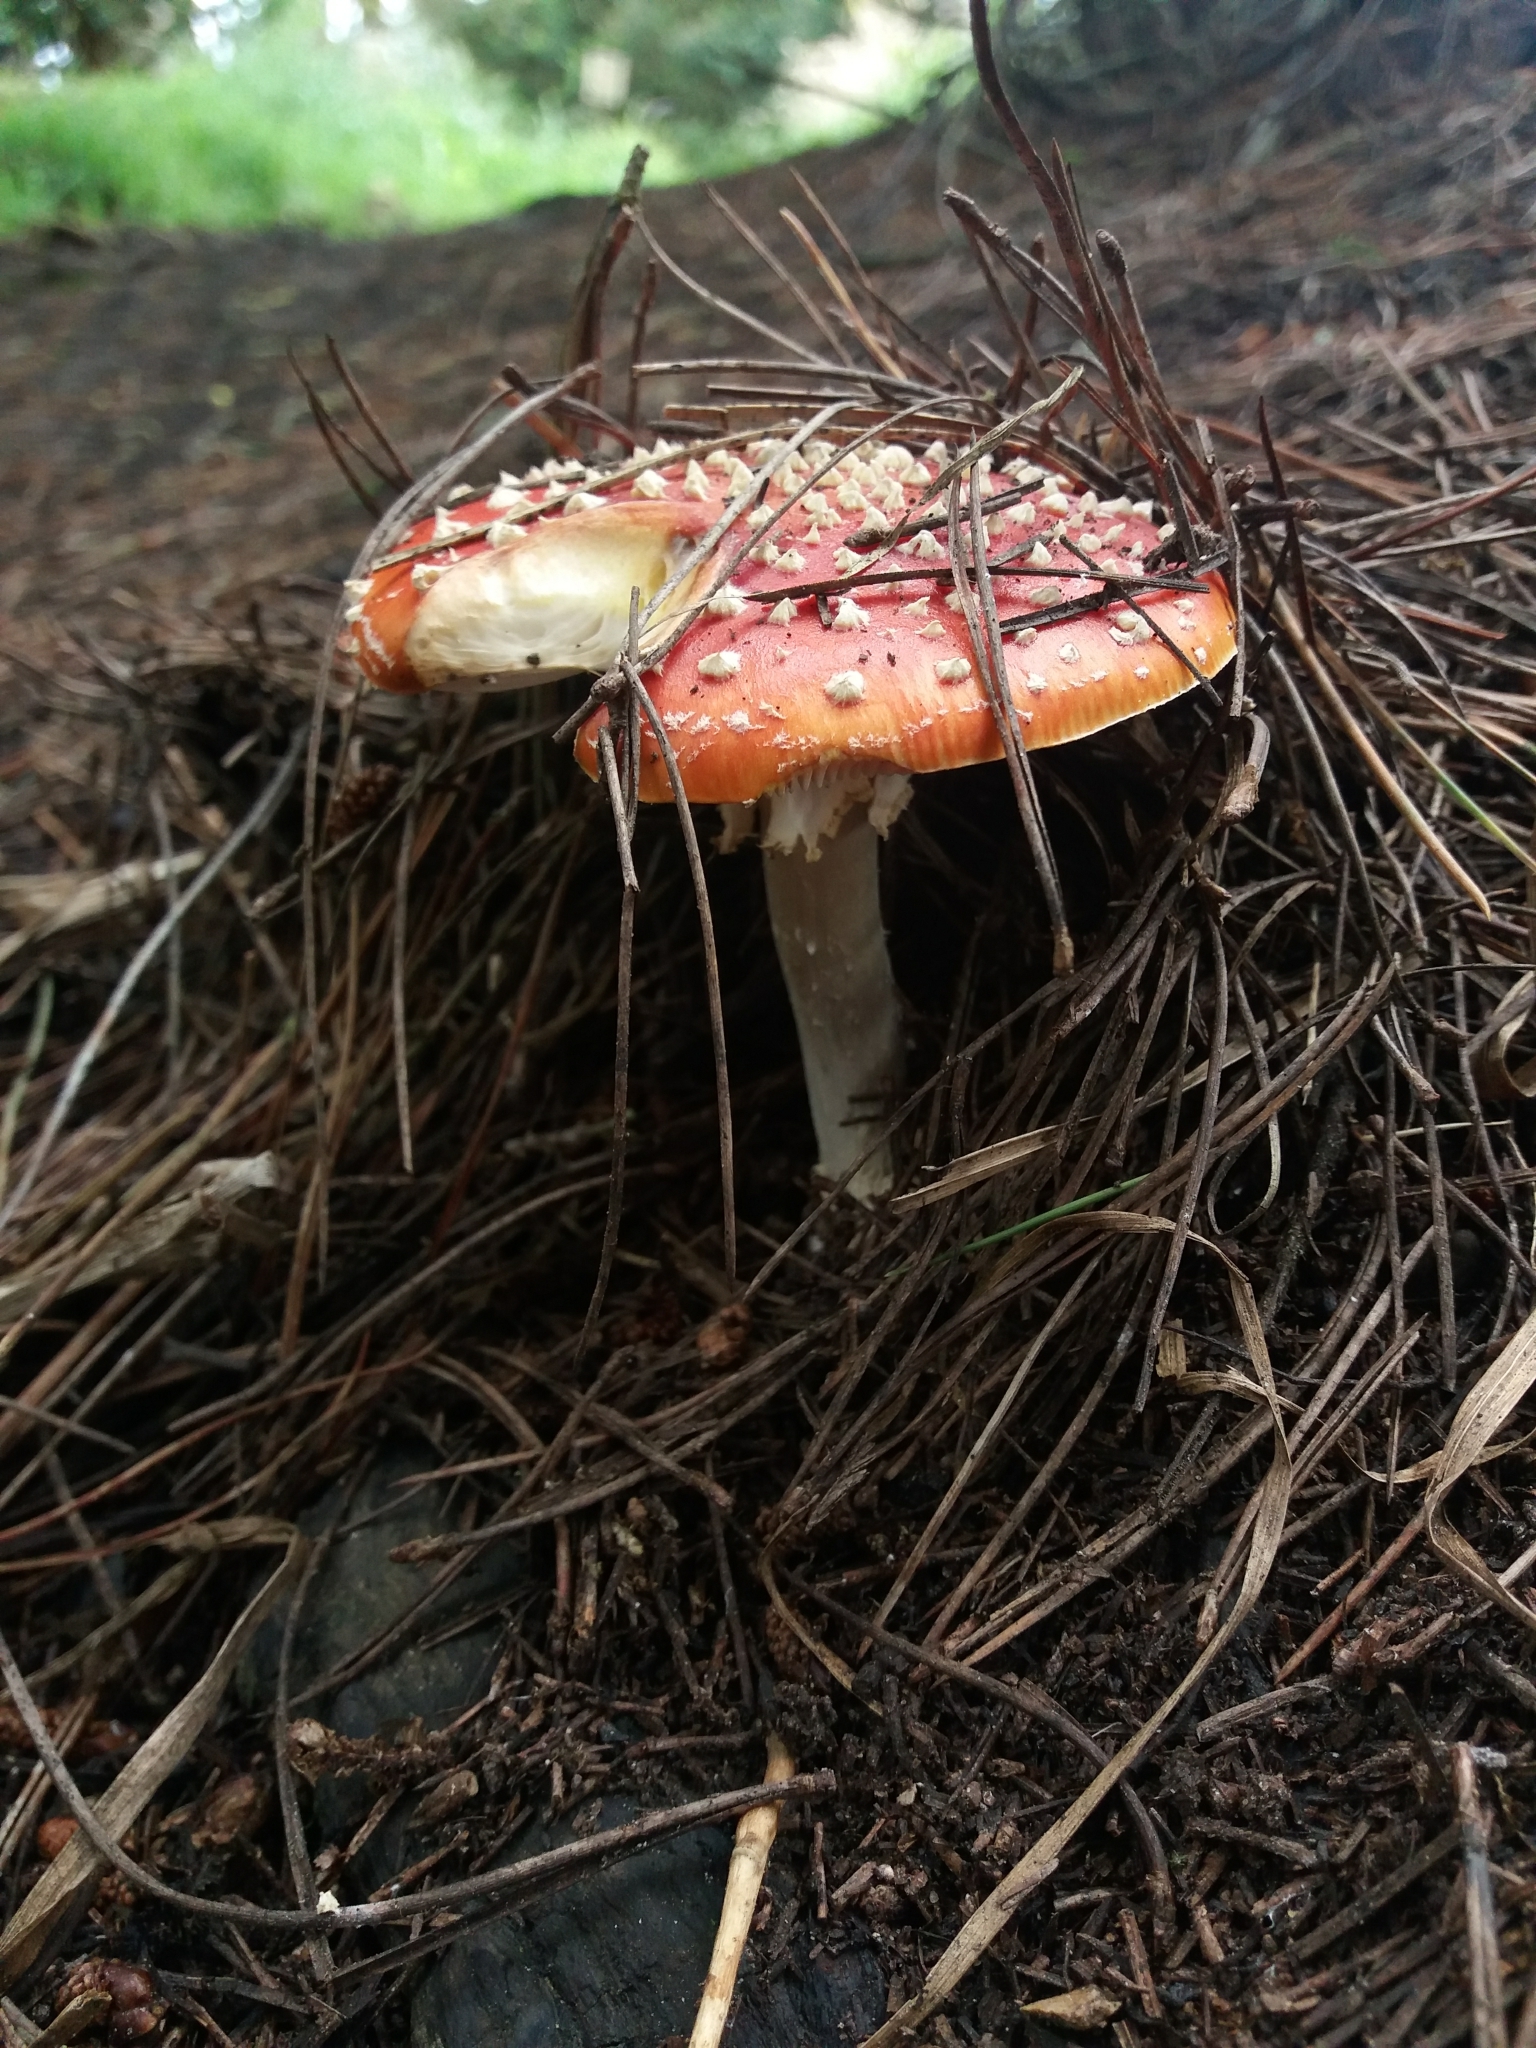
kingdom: Fungi
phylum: Basidiomycota
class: Agaricomycetes
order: Agaricales
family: Amanitaceae
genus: Amanita
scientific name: Amanita muscaria
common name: Fly agaric
